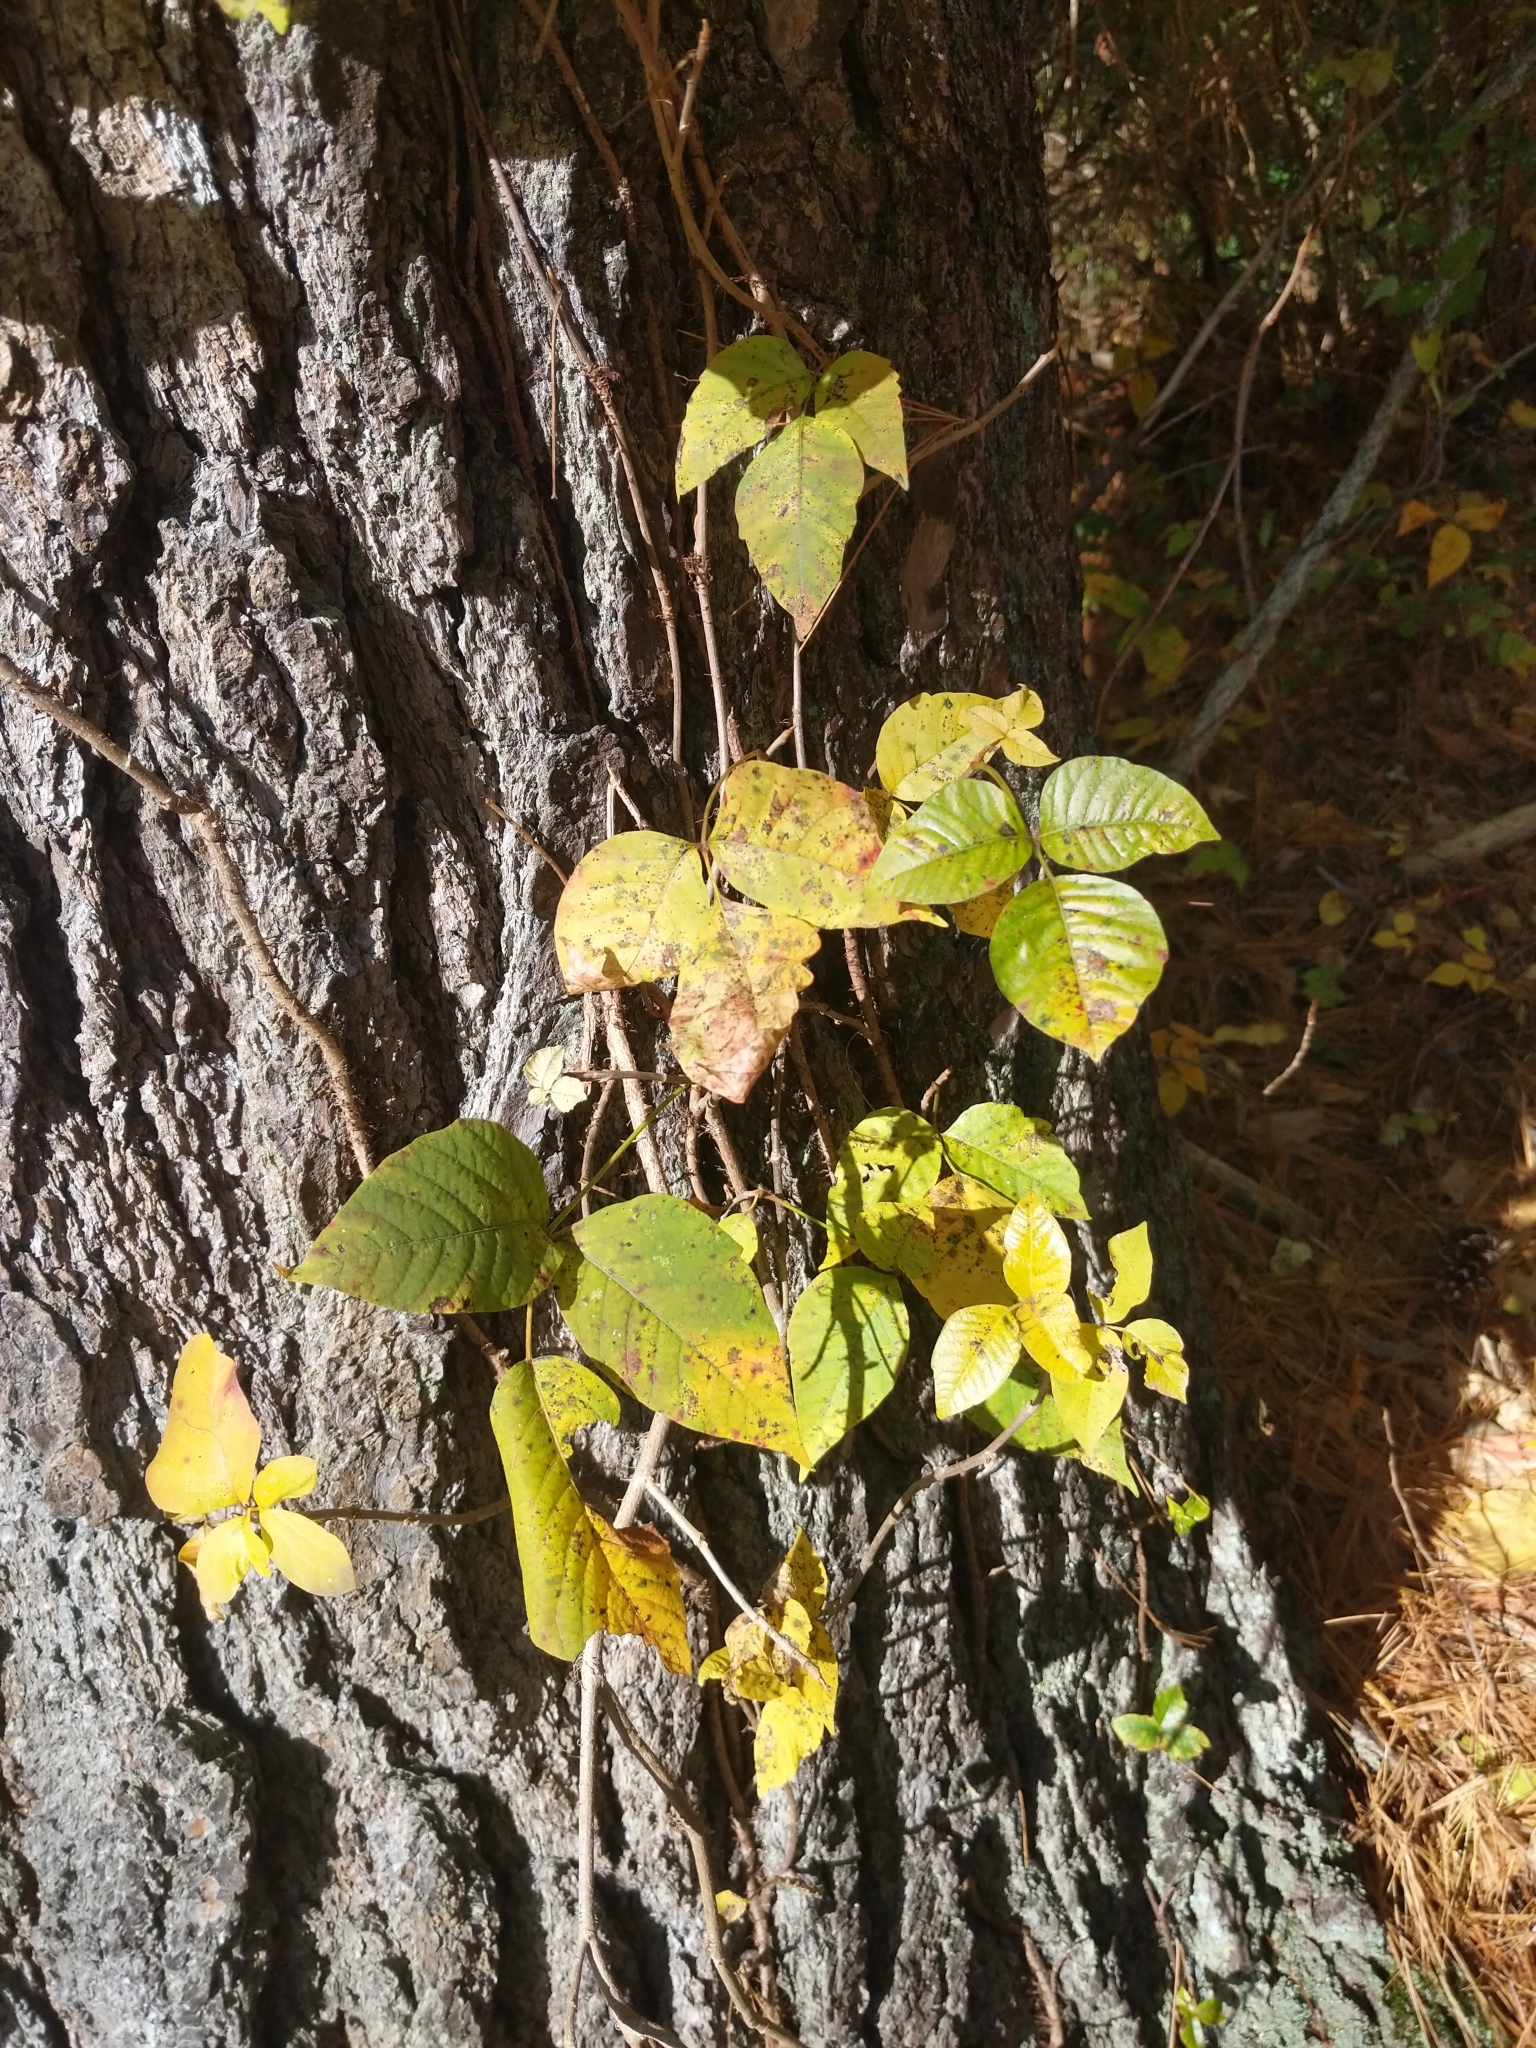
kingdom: Plantae
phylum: Tracheophyta
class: Magnoliopsida
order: Sapindales
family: Anacardiaceae
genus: Toxicodendron
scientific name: Toxicodendron radicans
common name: Poison ivy
